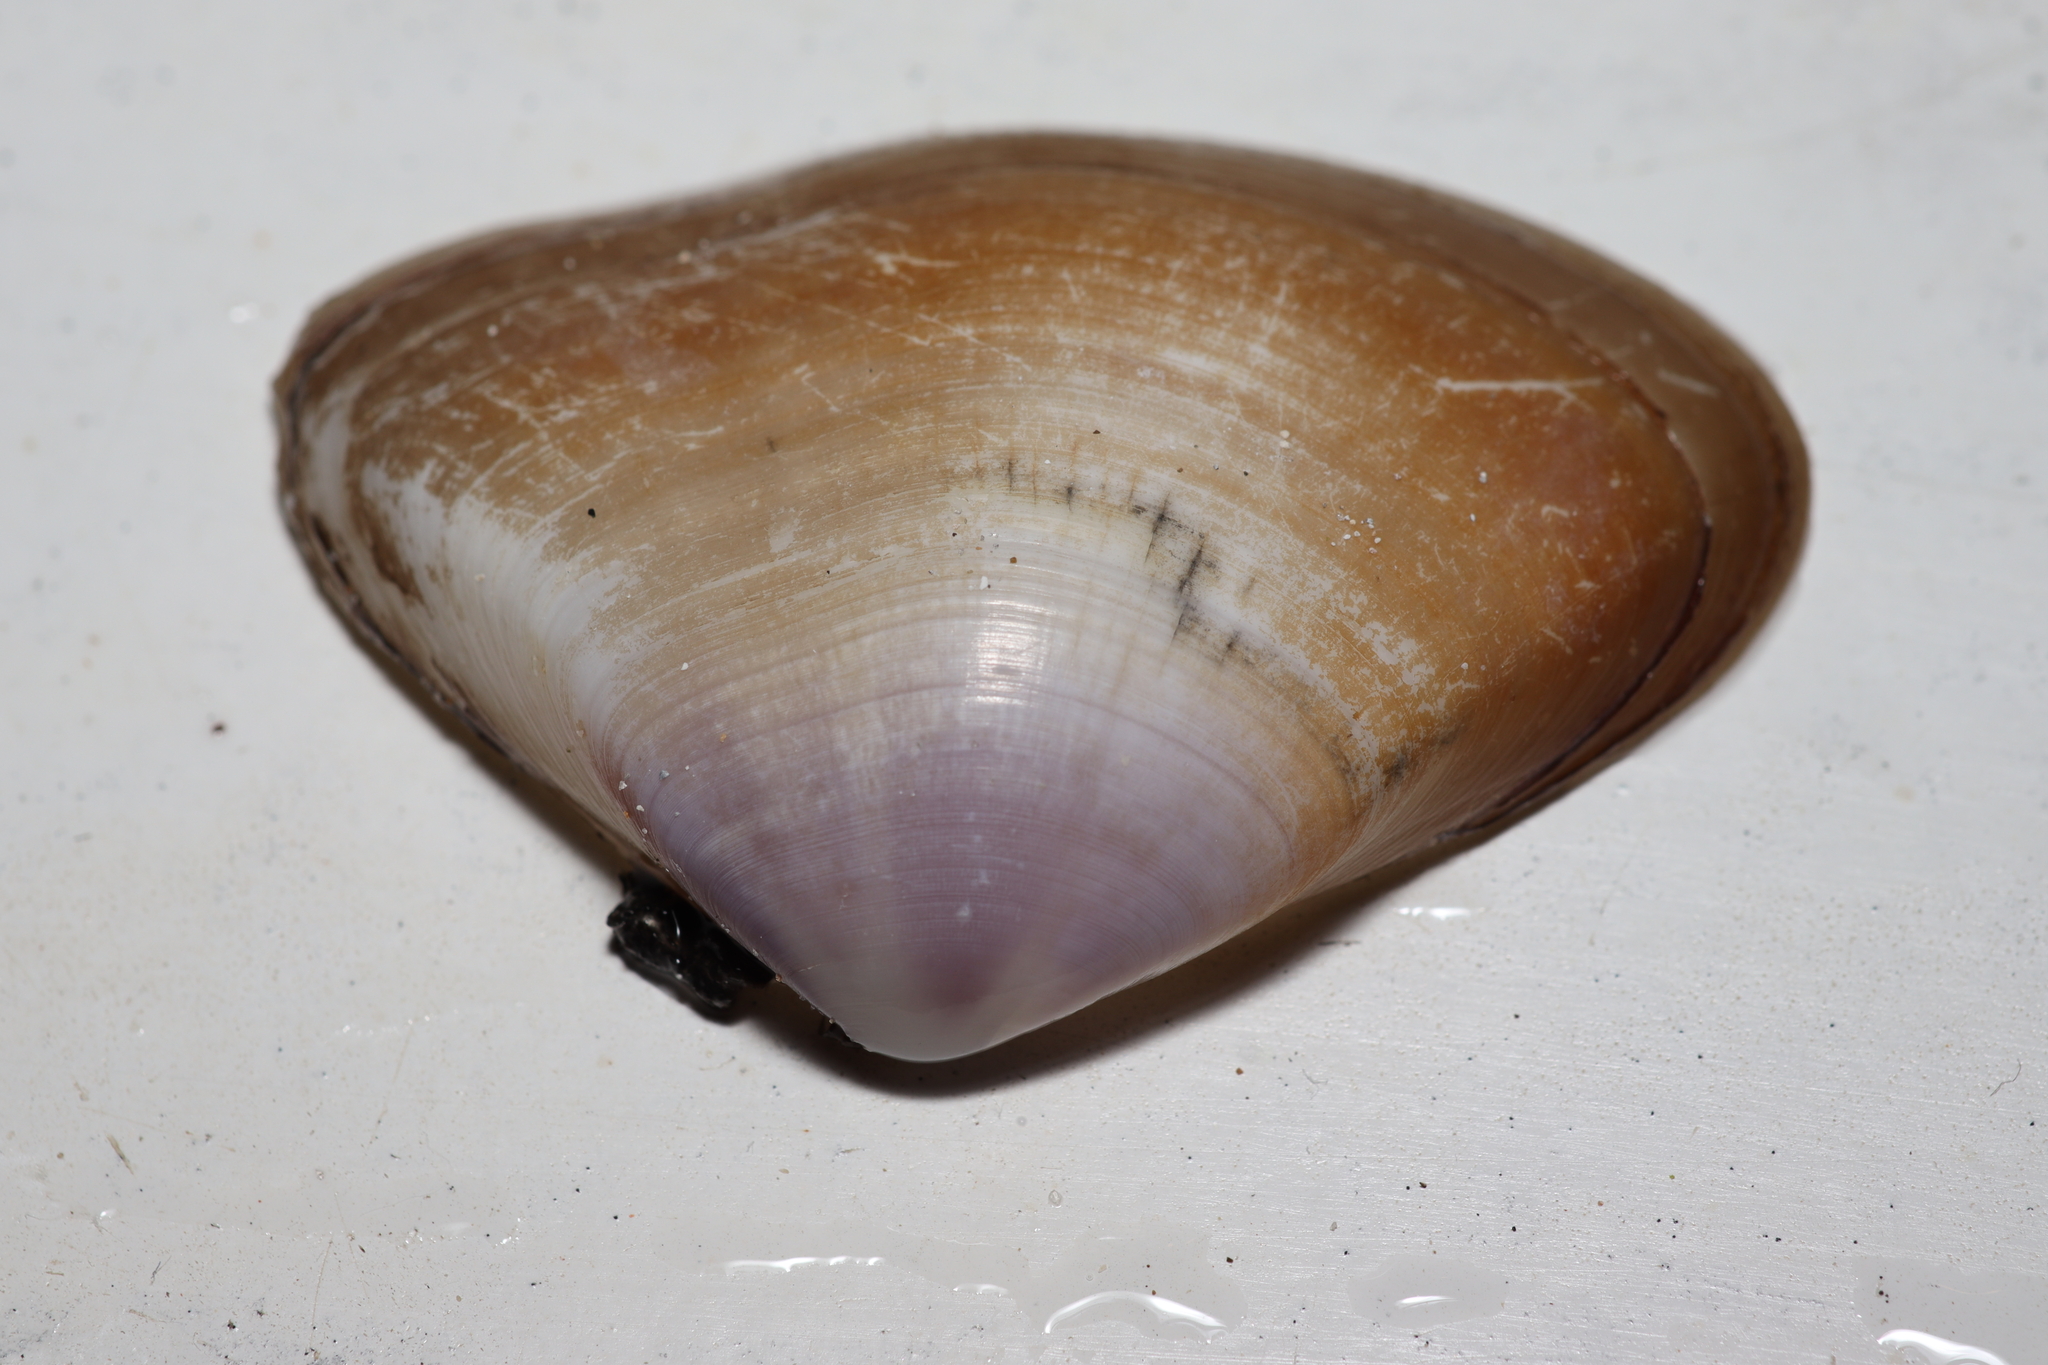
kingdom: Animalia
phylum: Mollusca
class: Bivalvia
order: Cardiida
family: Donacidae
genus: Iphigenia
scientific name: Iphigenia brasiliensis
